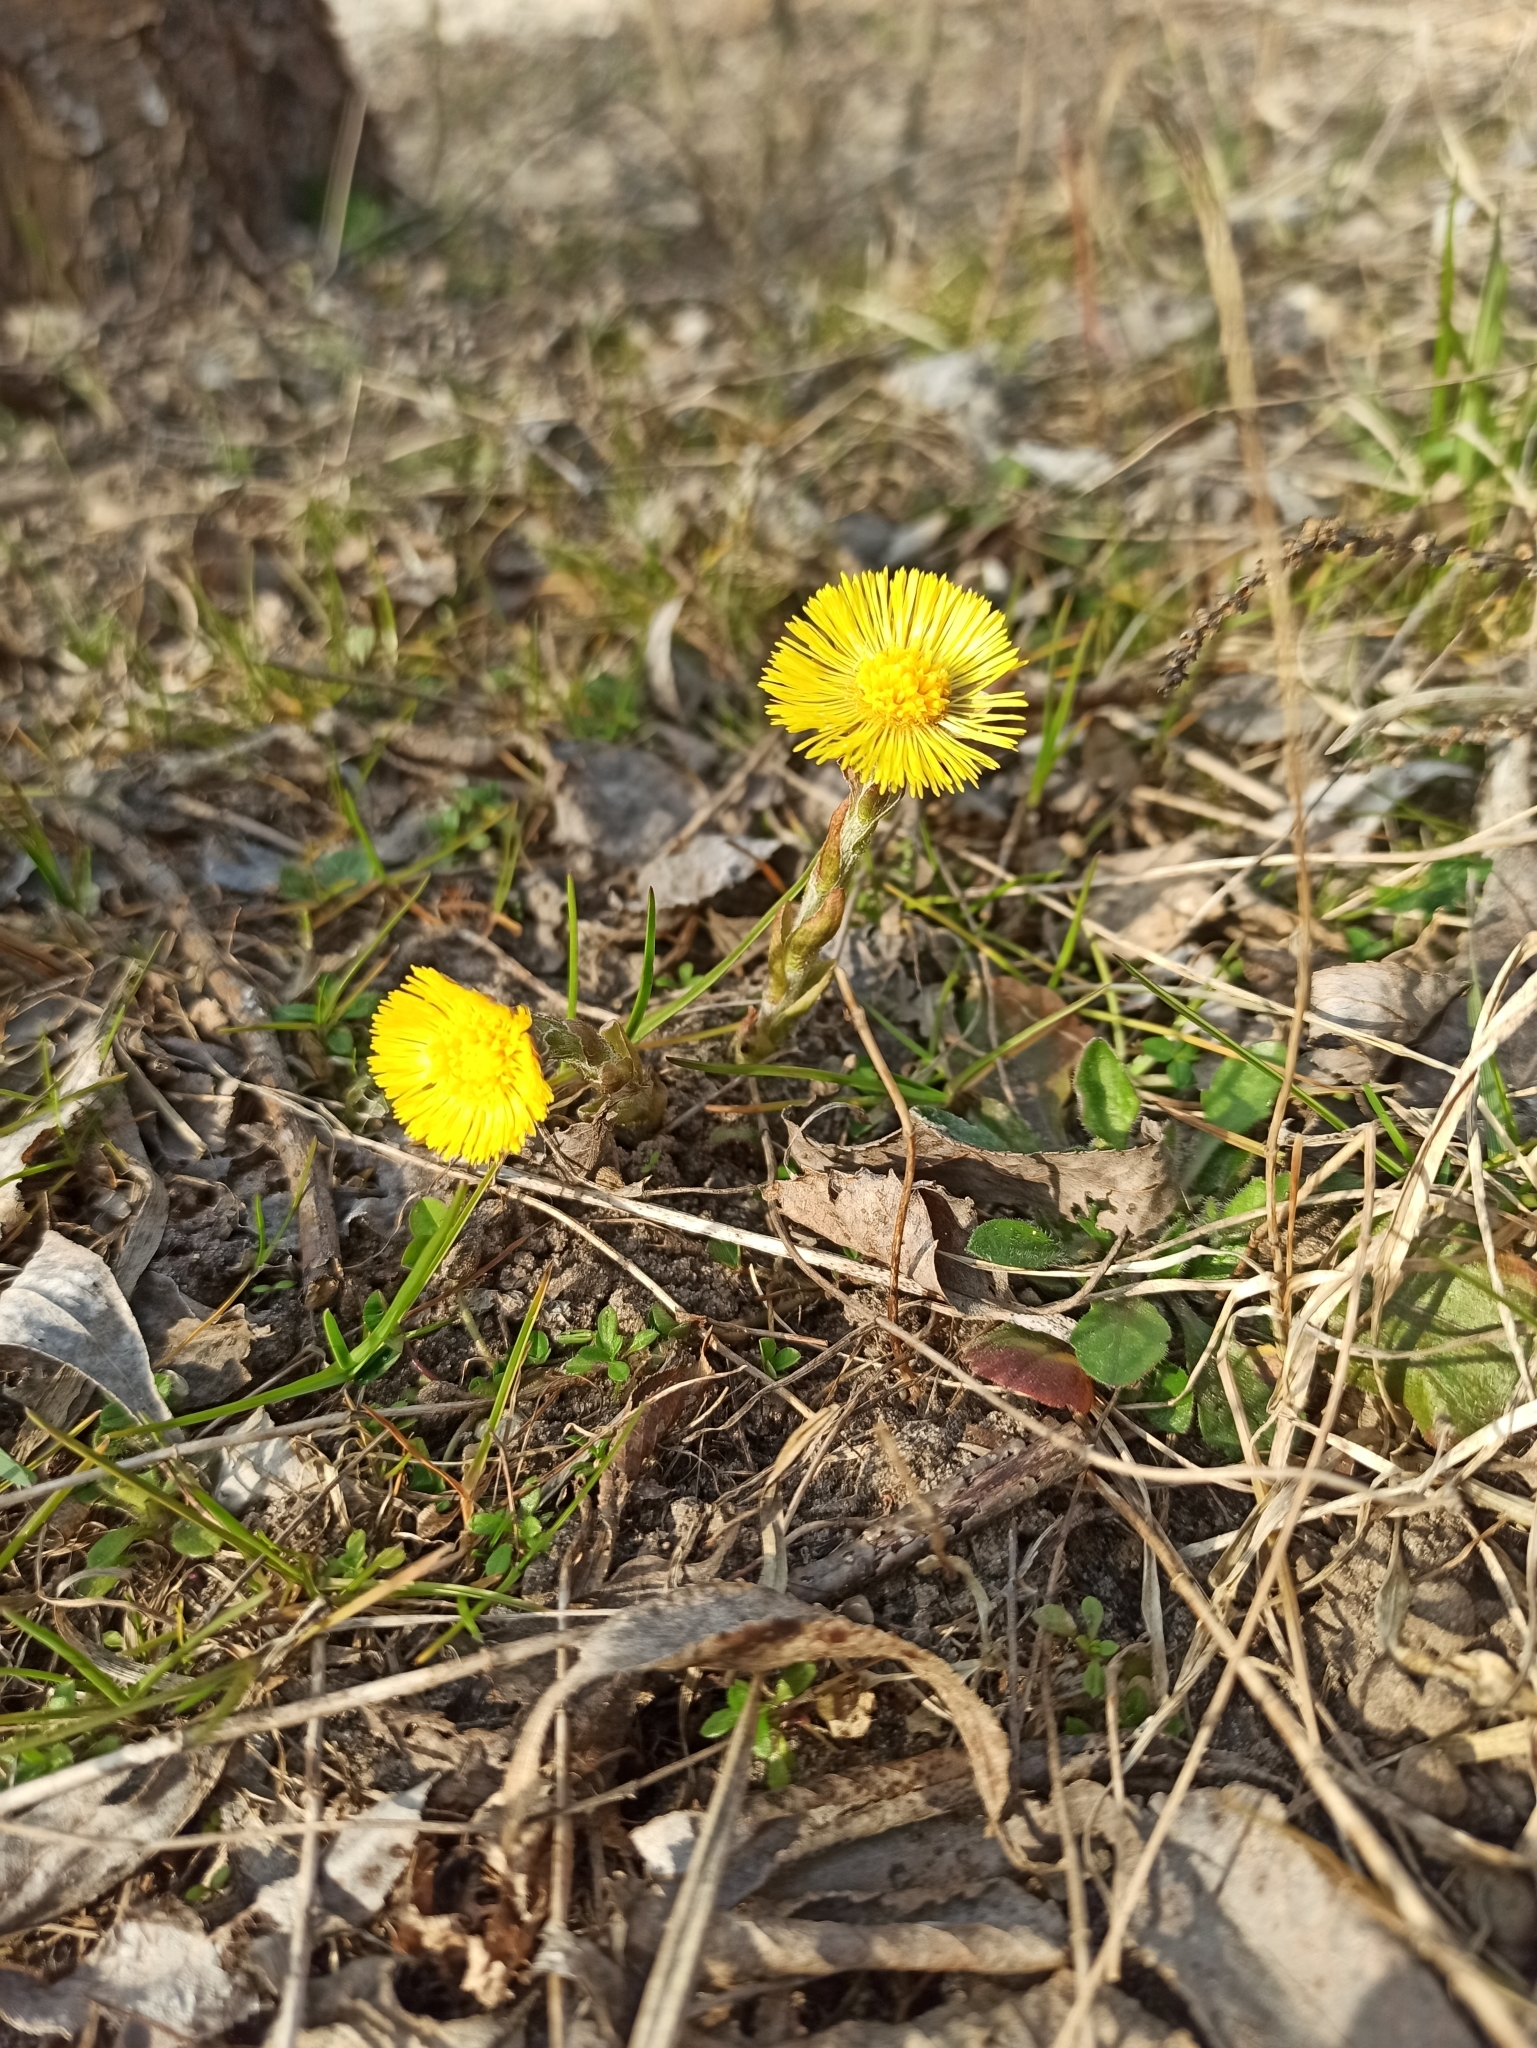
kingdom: Plantae
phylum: Tracheophyta
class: Magnoliopsida
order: Asterales
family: Asteraceae
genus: Tussilago
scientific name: Tussilago farfara
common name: Coltsfoot
